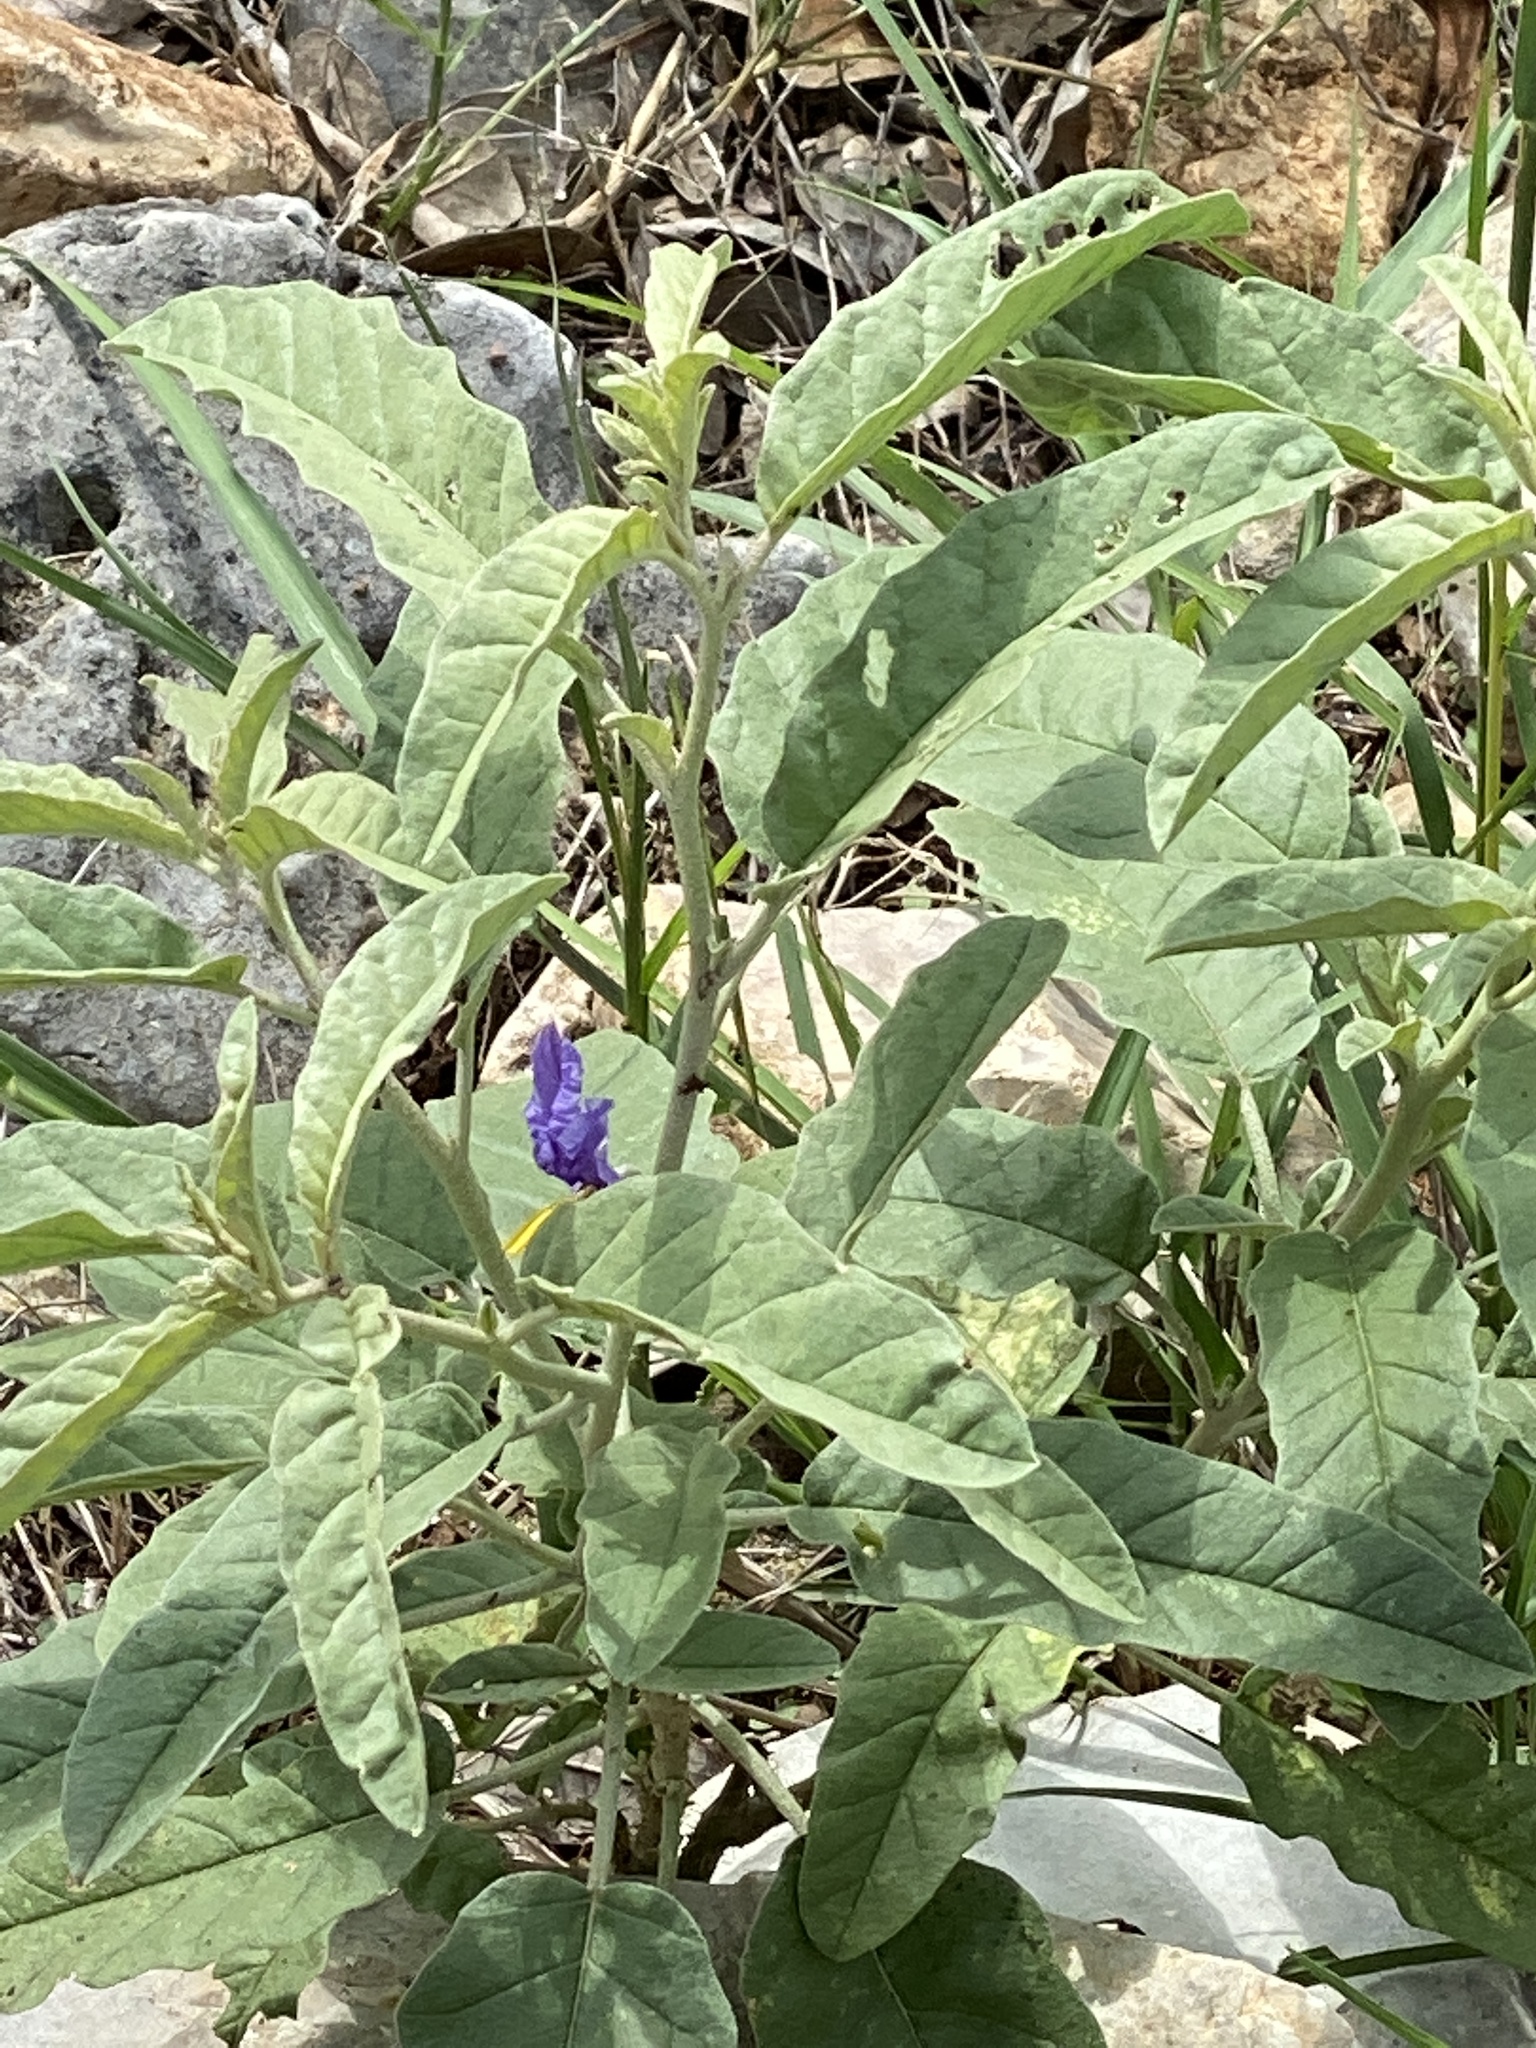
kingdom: Plantae
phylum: Tracheophyta
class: Magnoliopsida
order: Solanales
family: Solanaceae
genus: Solanum
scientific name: Solanum elaeagnifolium
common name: Silverleaf nightshade
